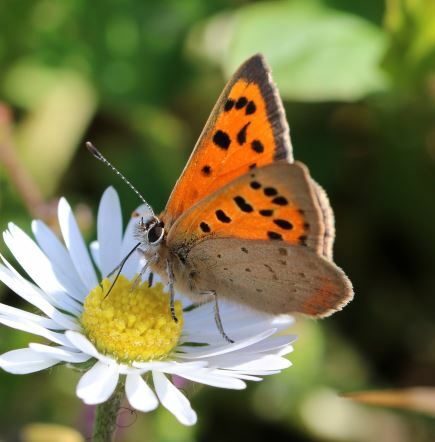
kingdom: Animalia
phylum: Arthropoda
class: Insecta
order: Lepidoptera
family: Lycaenidae
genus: Lycaena
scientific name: Lycaena phlaeas
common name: Small copper
